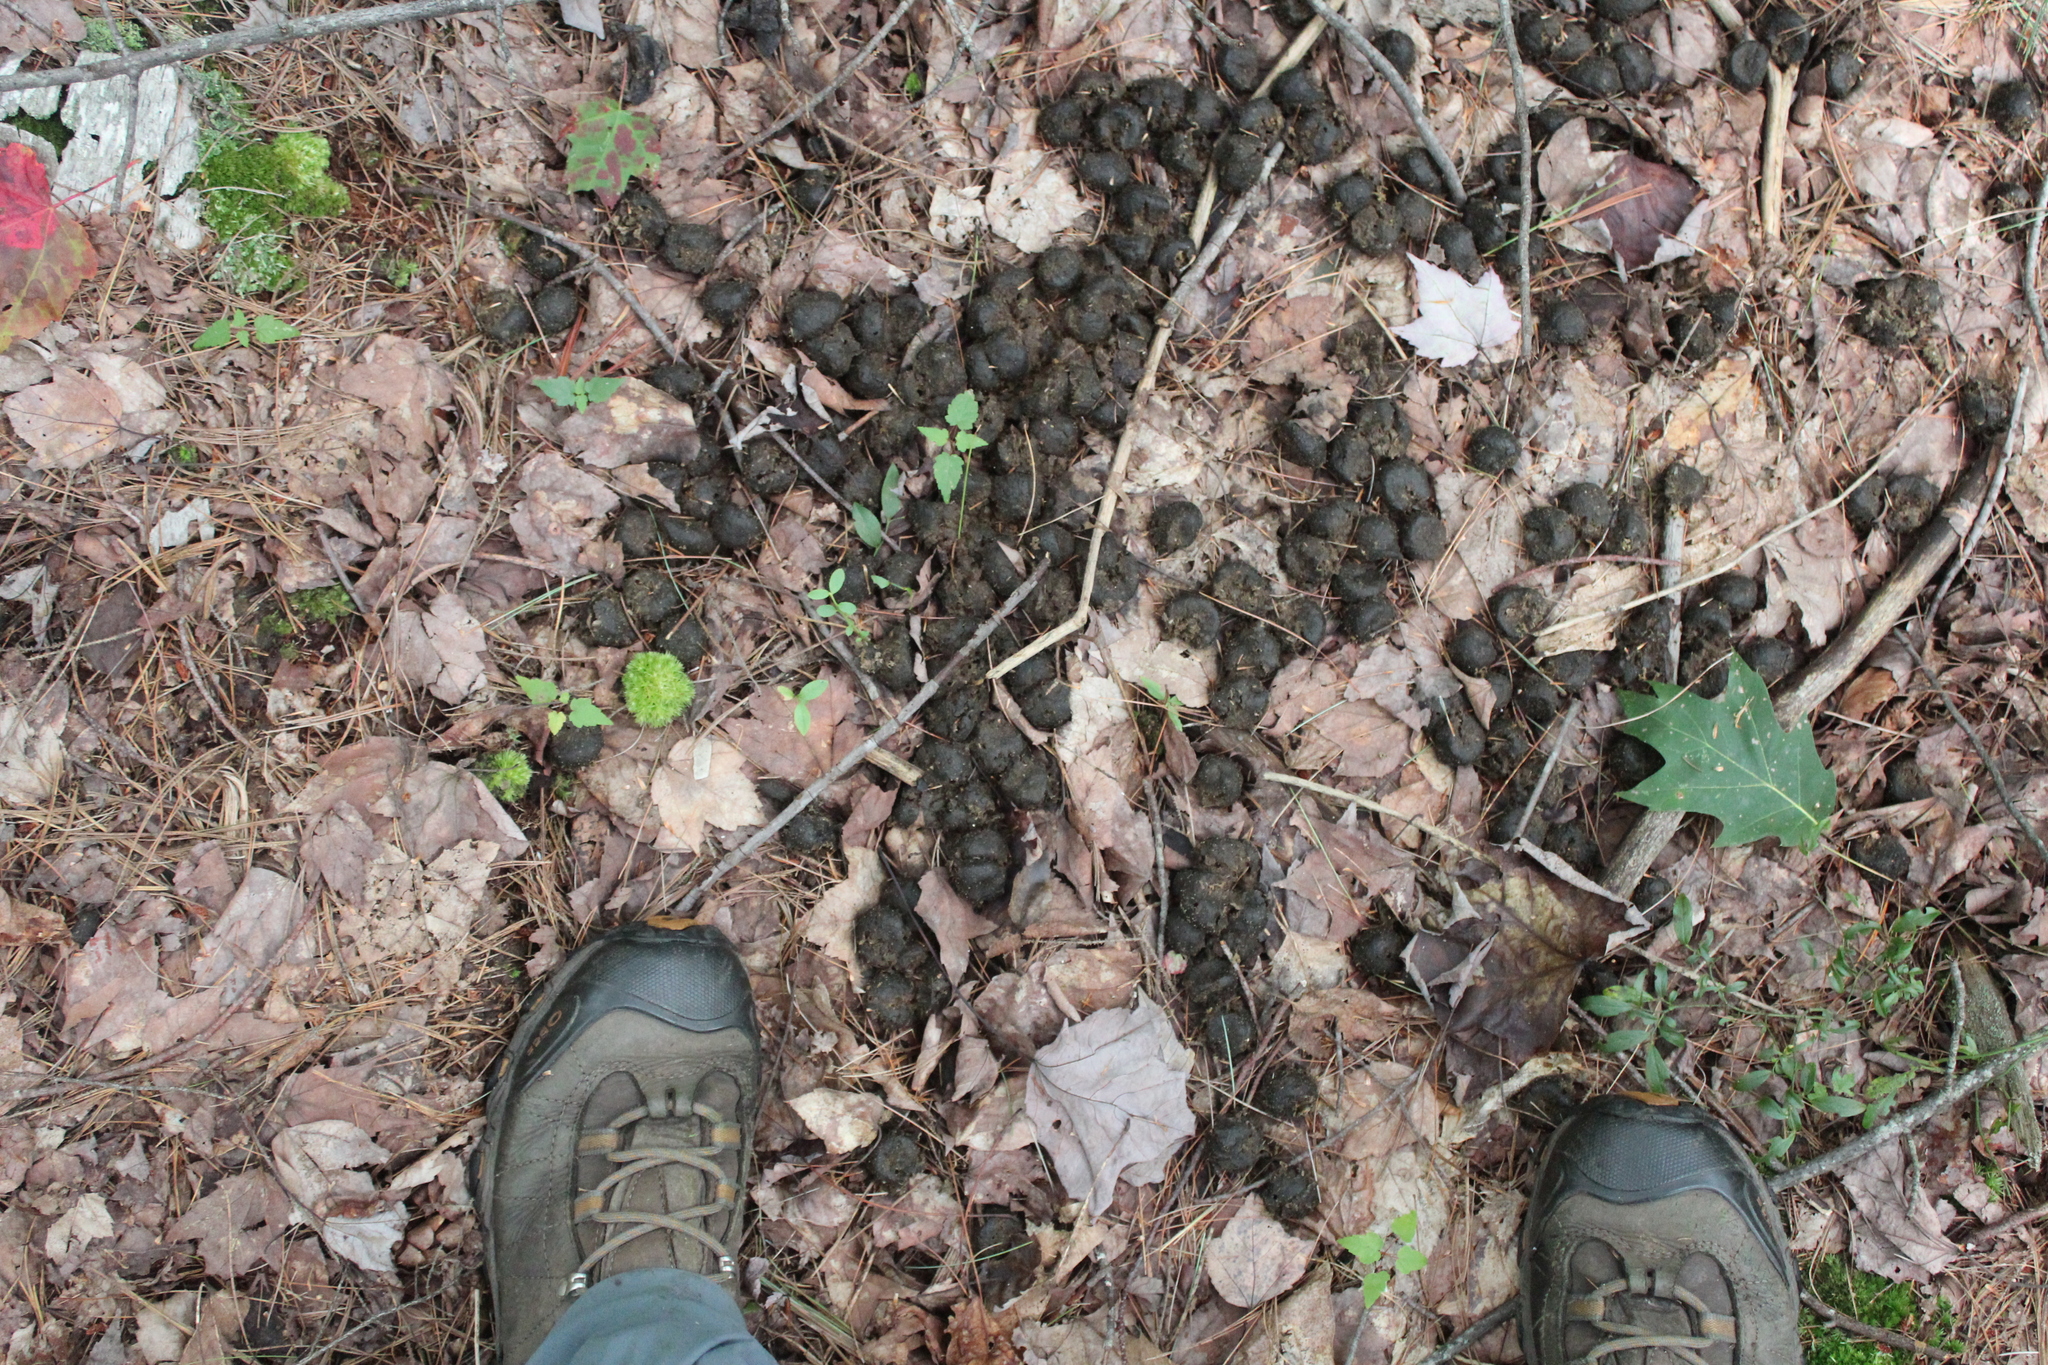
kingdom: Animalia
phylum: Chordata
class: Mammalia
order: Artiodactyla
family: Cervidae
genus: Alces
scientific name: Alces alces
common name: Moose
